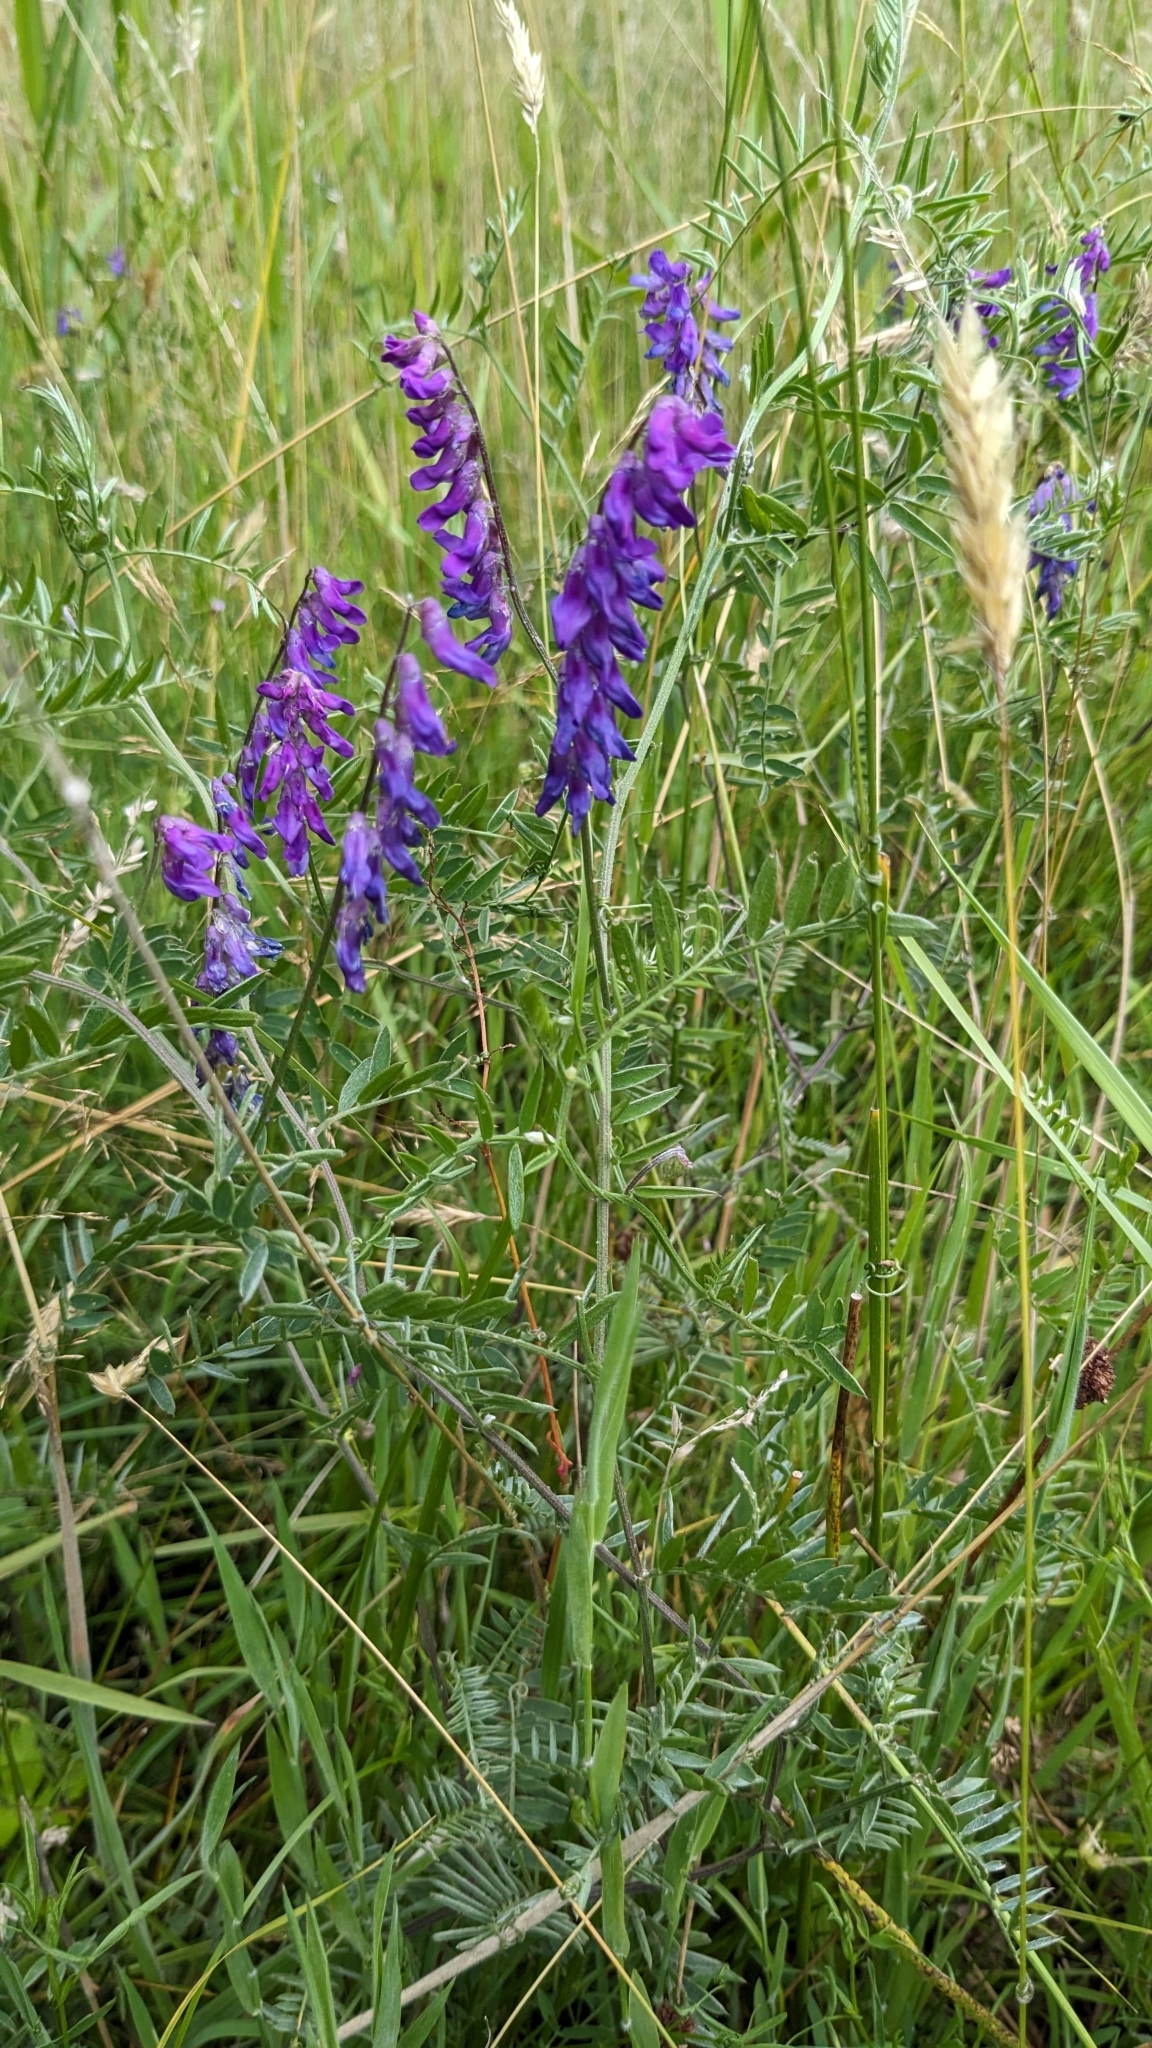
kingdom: Plantae
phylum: Tracheophyta
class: Magnoliopsida
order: Fabales
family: Fabaceae
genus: Vicia
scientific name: Vicia cracca
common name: Bird vetch
